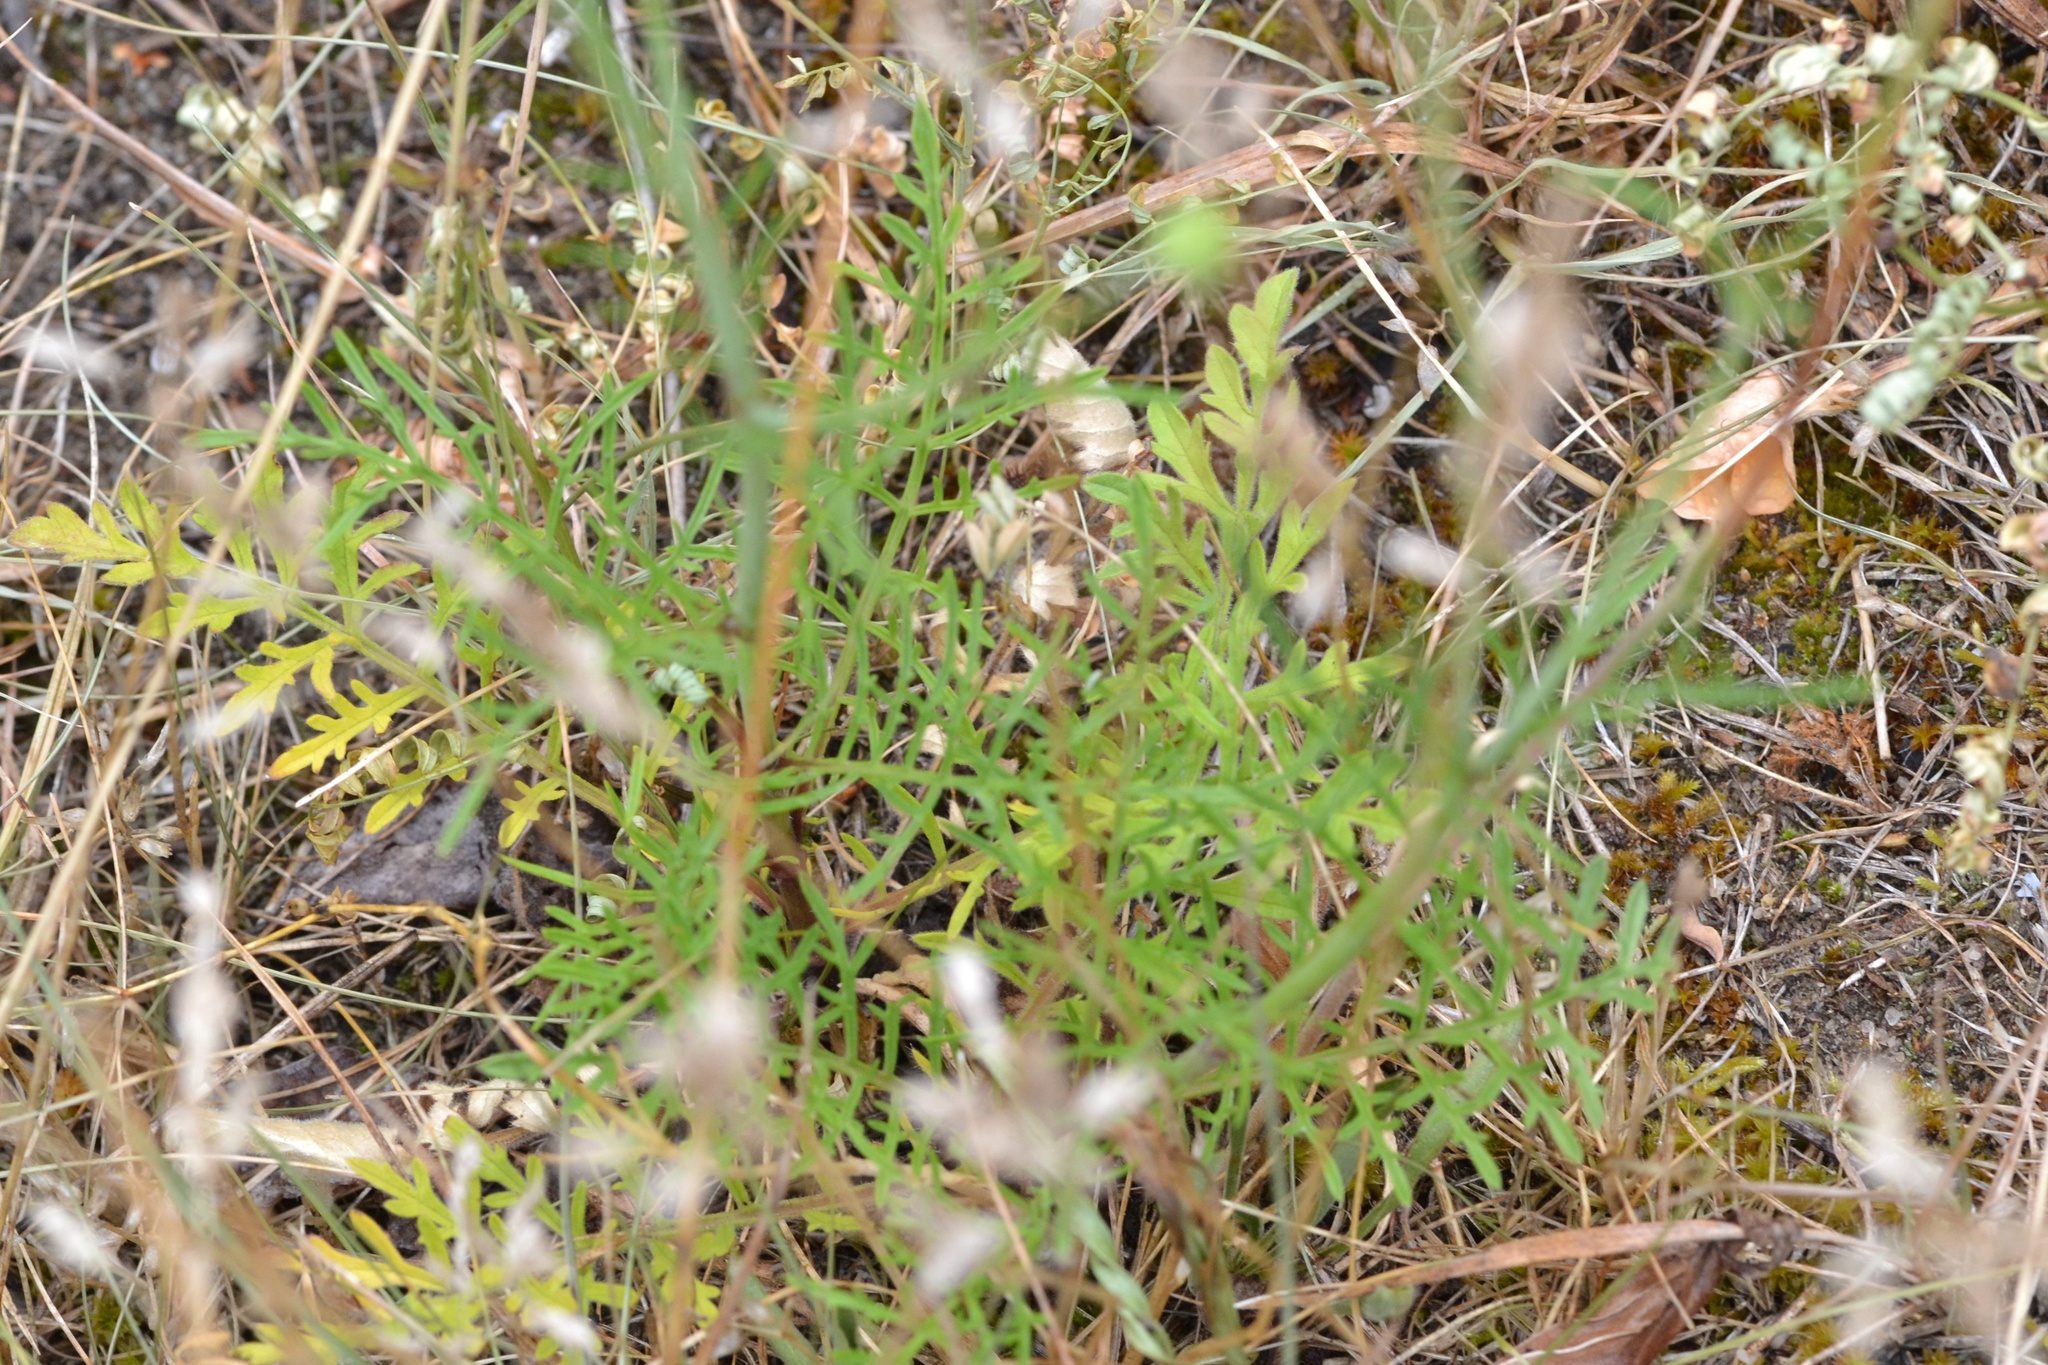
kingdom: Plantae
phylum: Tracheophyta
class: Magnoliopsida
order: Dipsacales
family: Caprifoliaceae
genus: Scabiosa
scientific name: Scabiosa ochroleuca
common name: Cream pincushions
